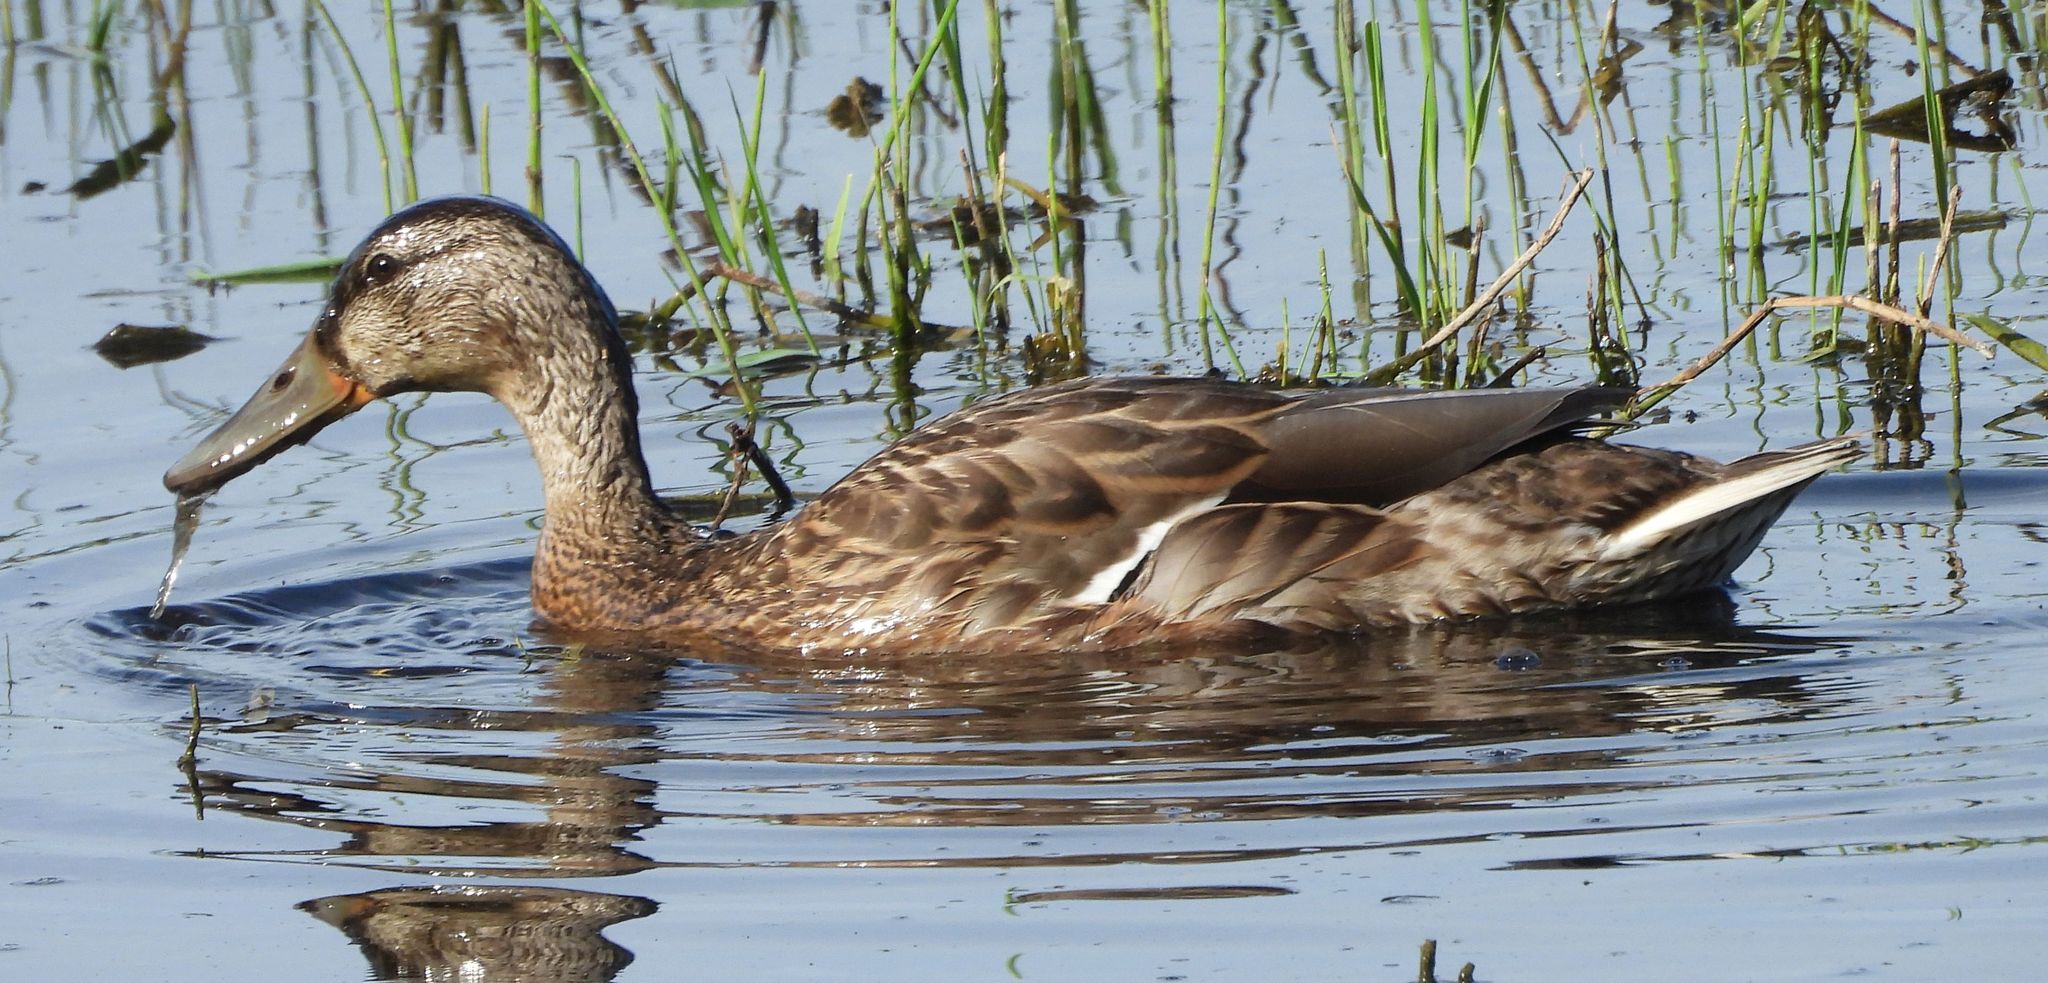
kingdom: Animalia
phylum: Chordata
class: Aves
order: Anseriformes
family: Anatidae
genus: Anas
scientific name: Anas platyrhynchos
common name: Mallard
